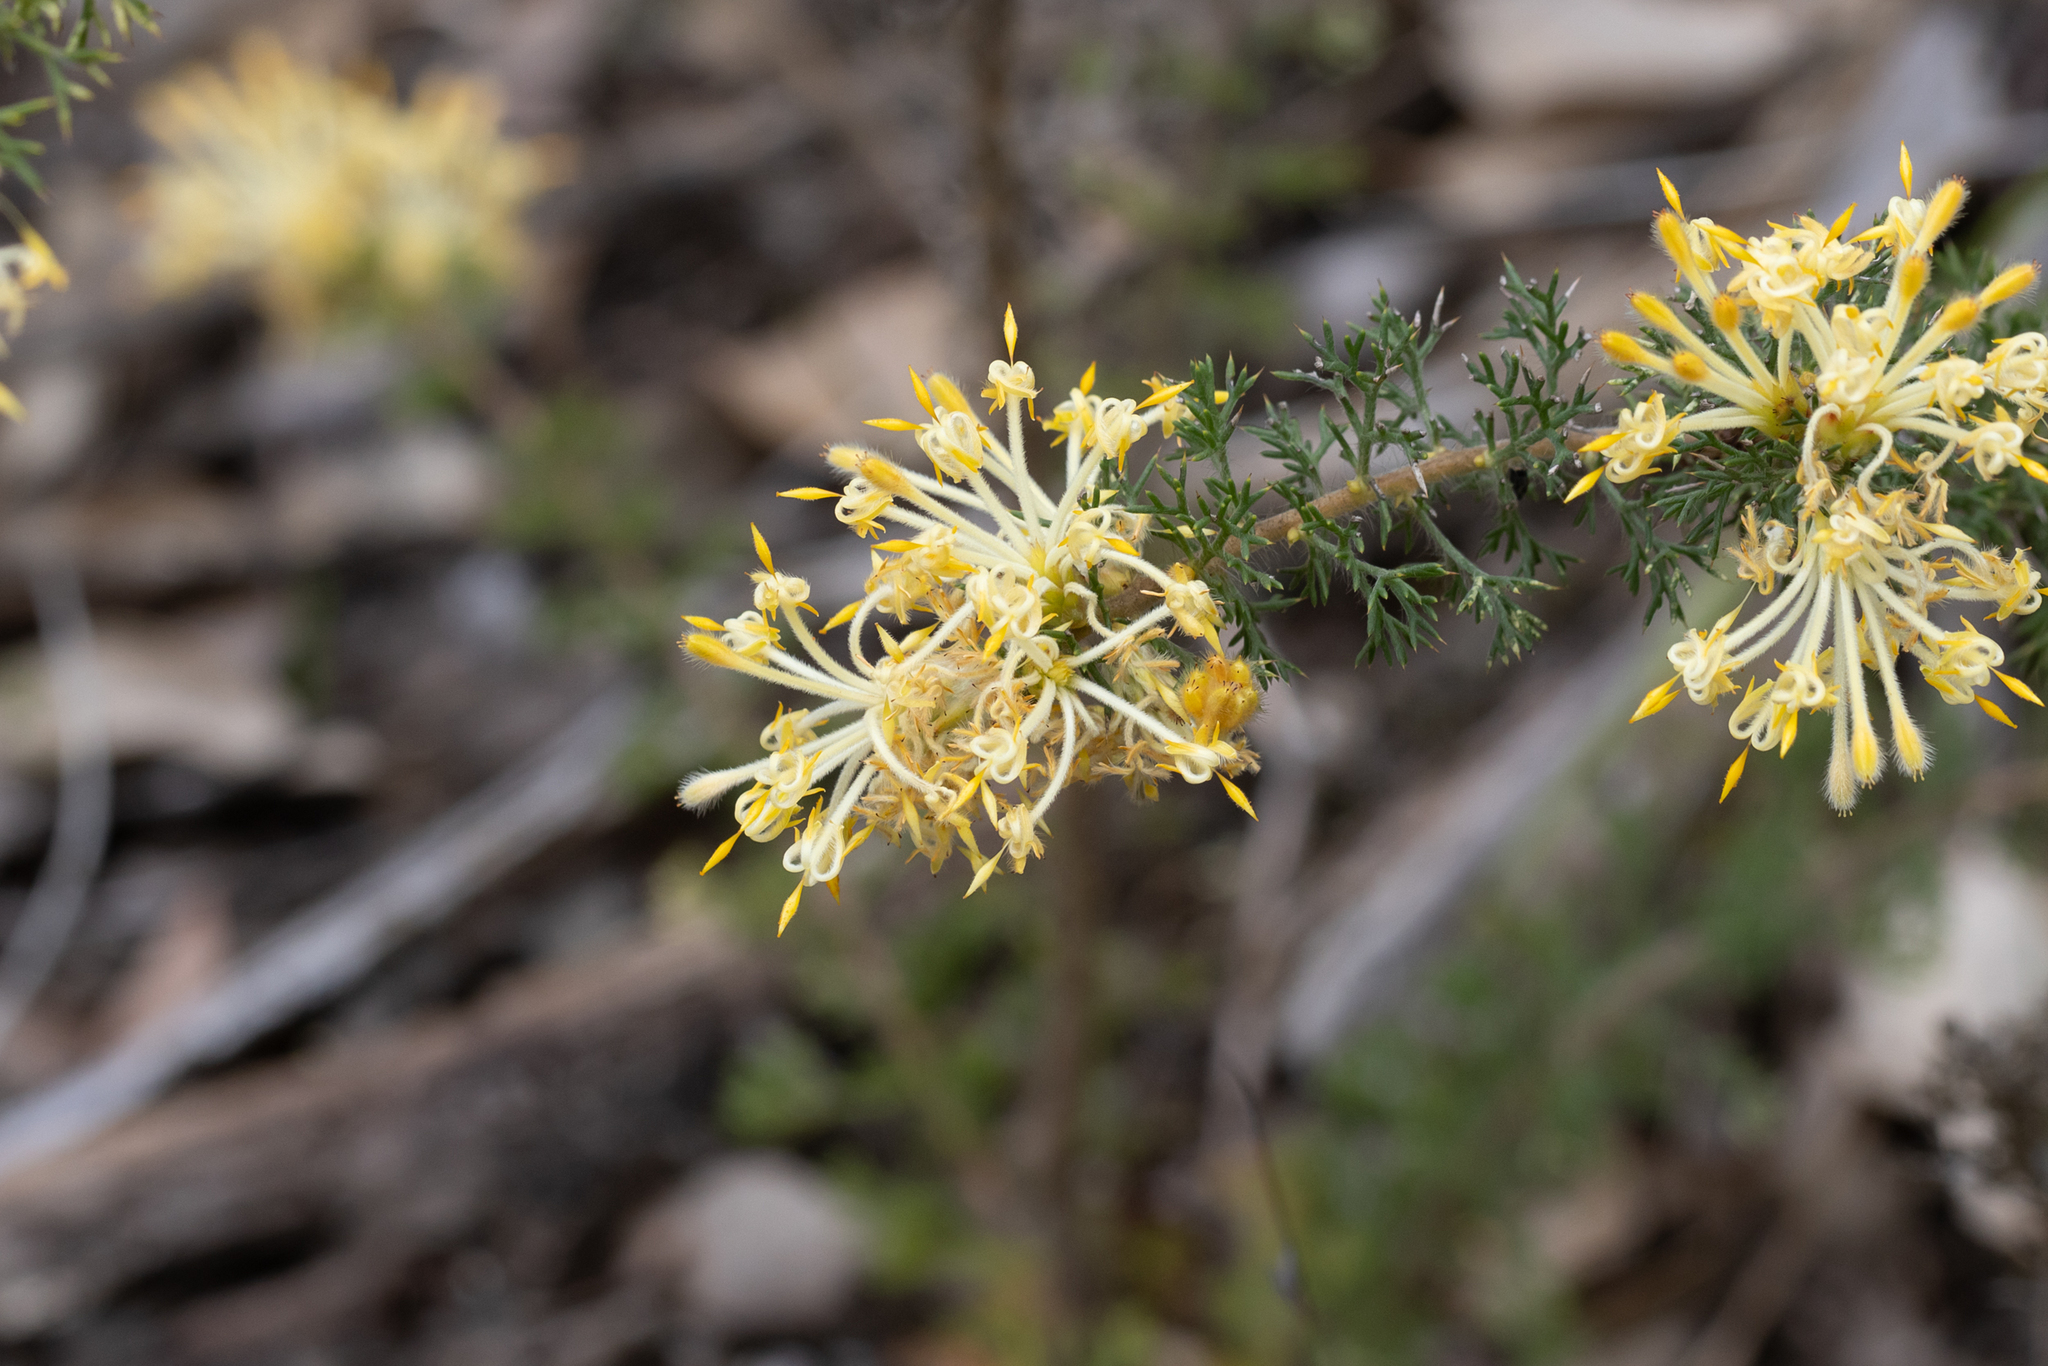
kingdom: Plantae
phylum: Tracheophyta
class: Magnoliopsida
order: Proteales
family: Proteaceae
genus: Petrophile
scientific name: Petrophile serruriae
